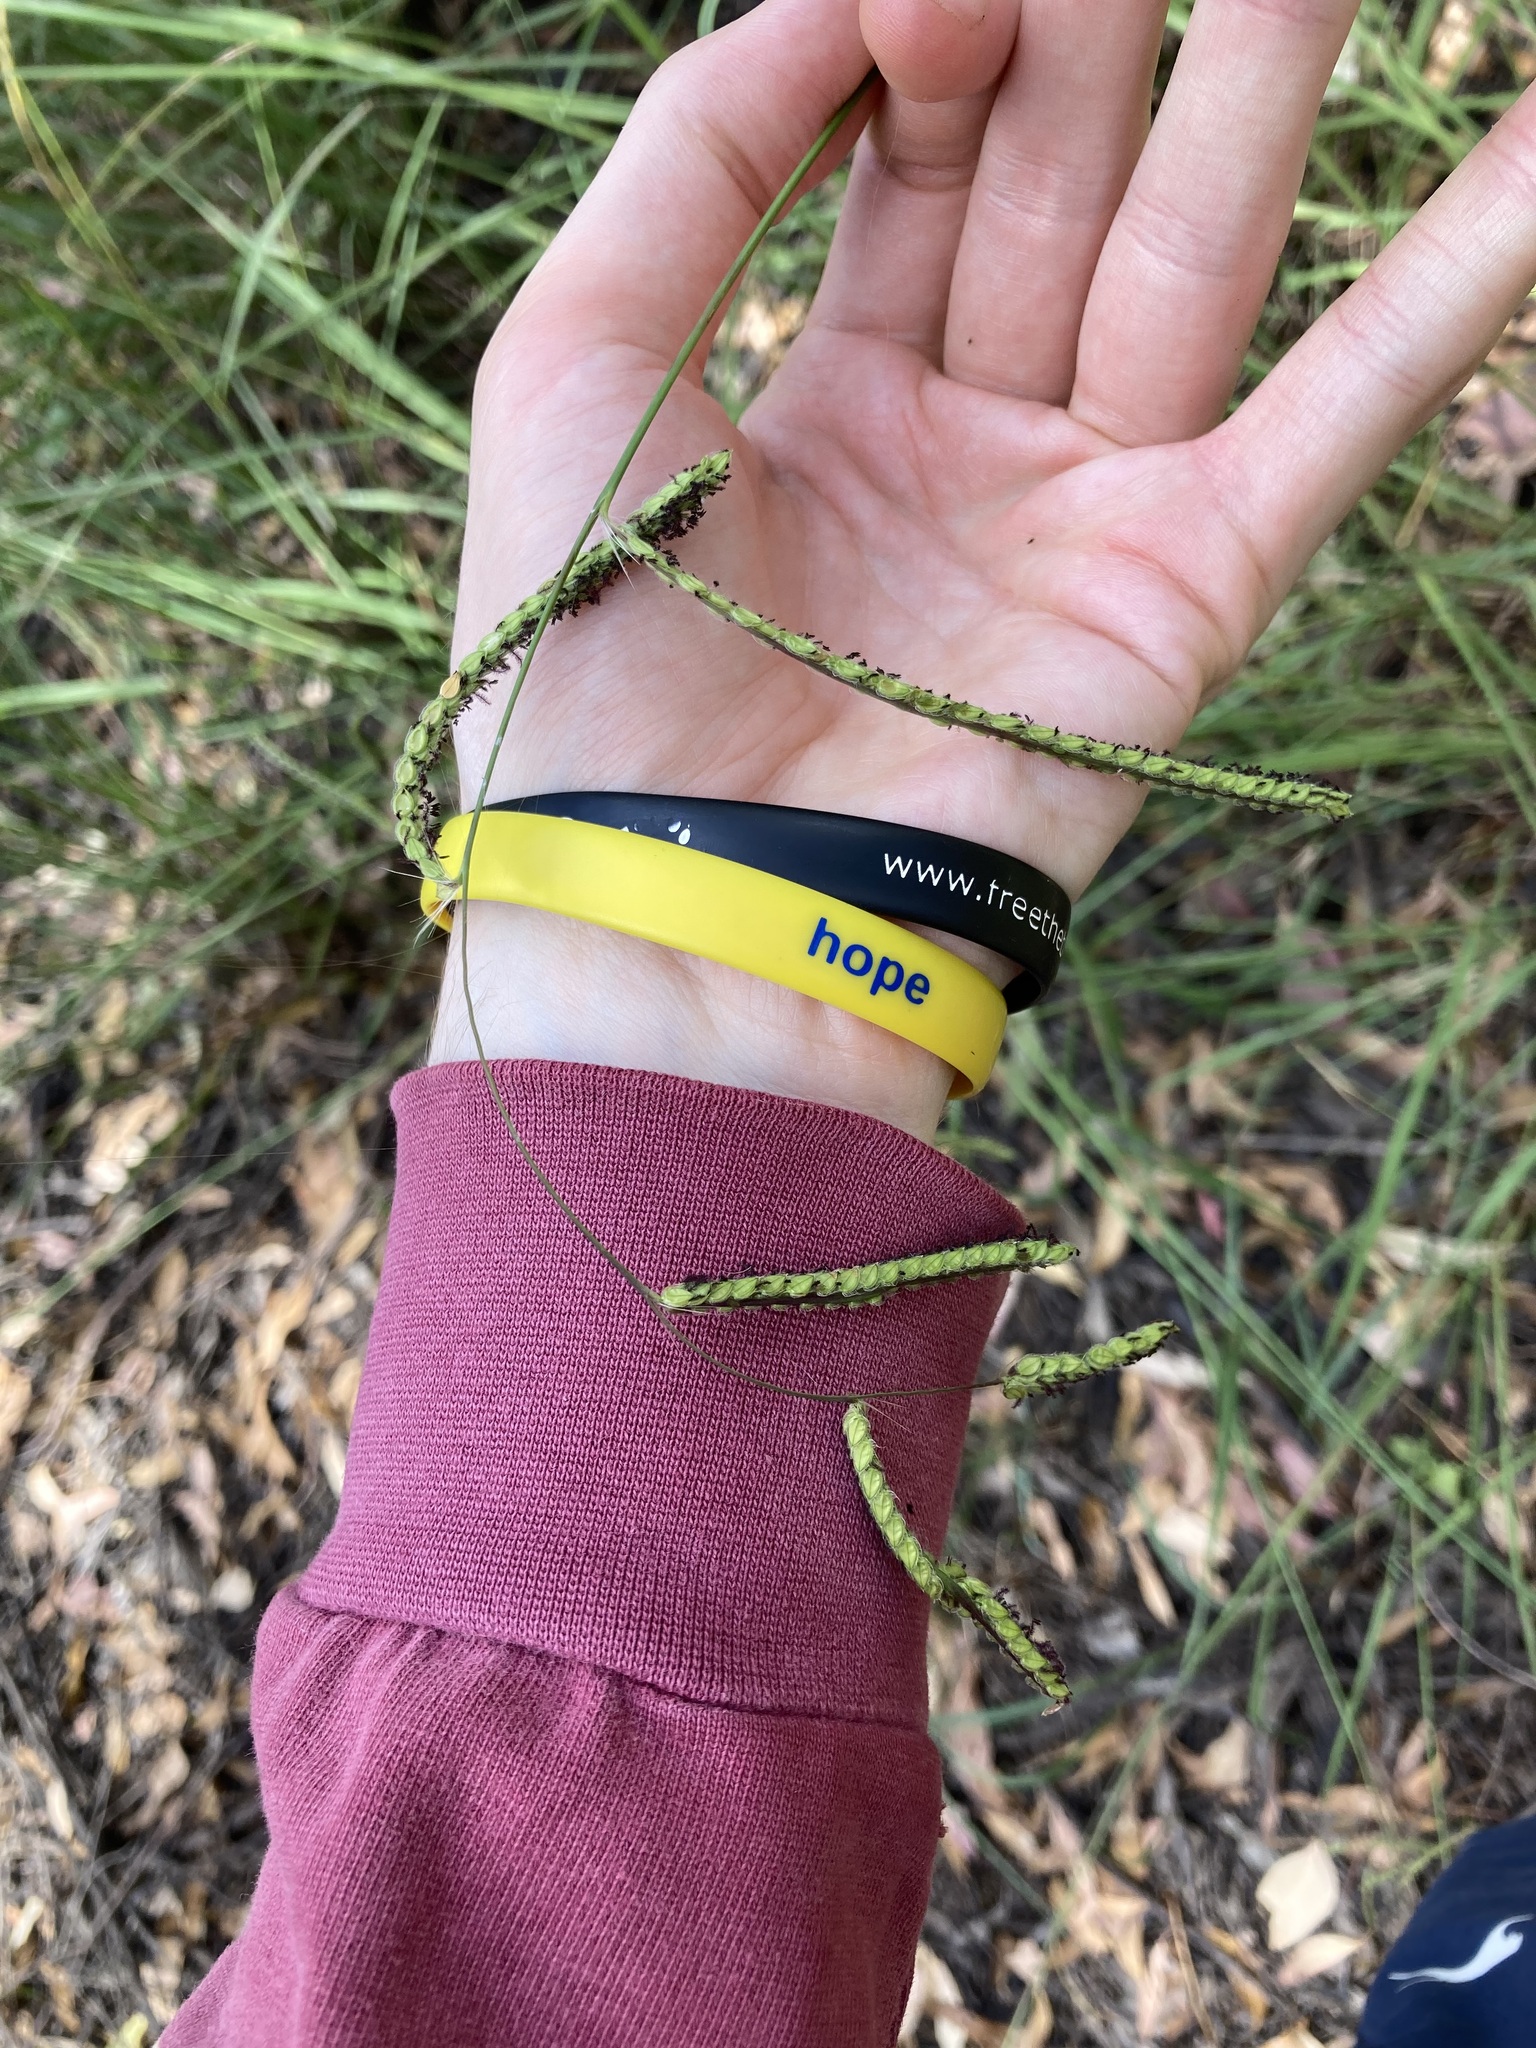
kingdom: Plantae
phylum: Tracheophyta
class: Liliopsida
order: Poales
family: Poaceae
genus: Paspalum
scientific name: Paspalum dilatatum
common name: Dallisgrass
